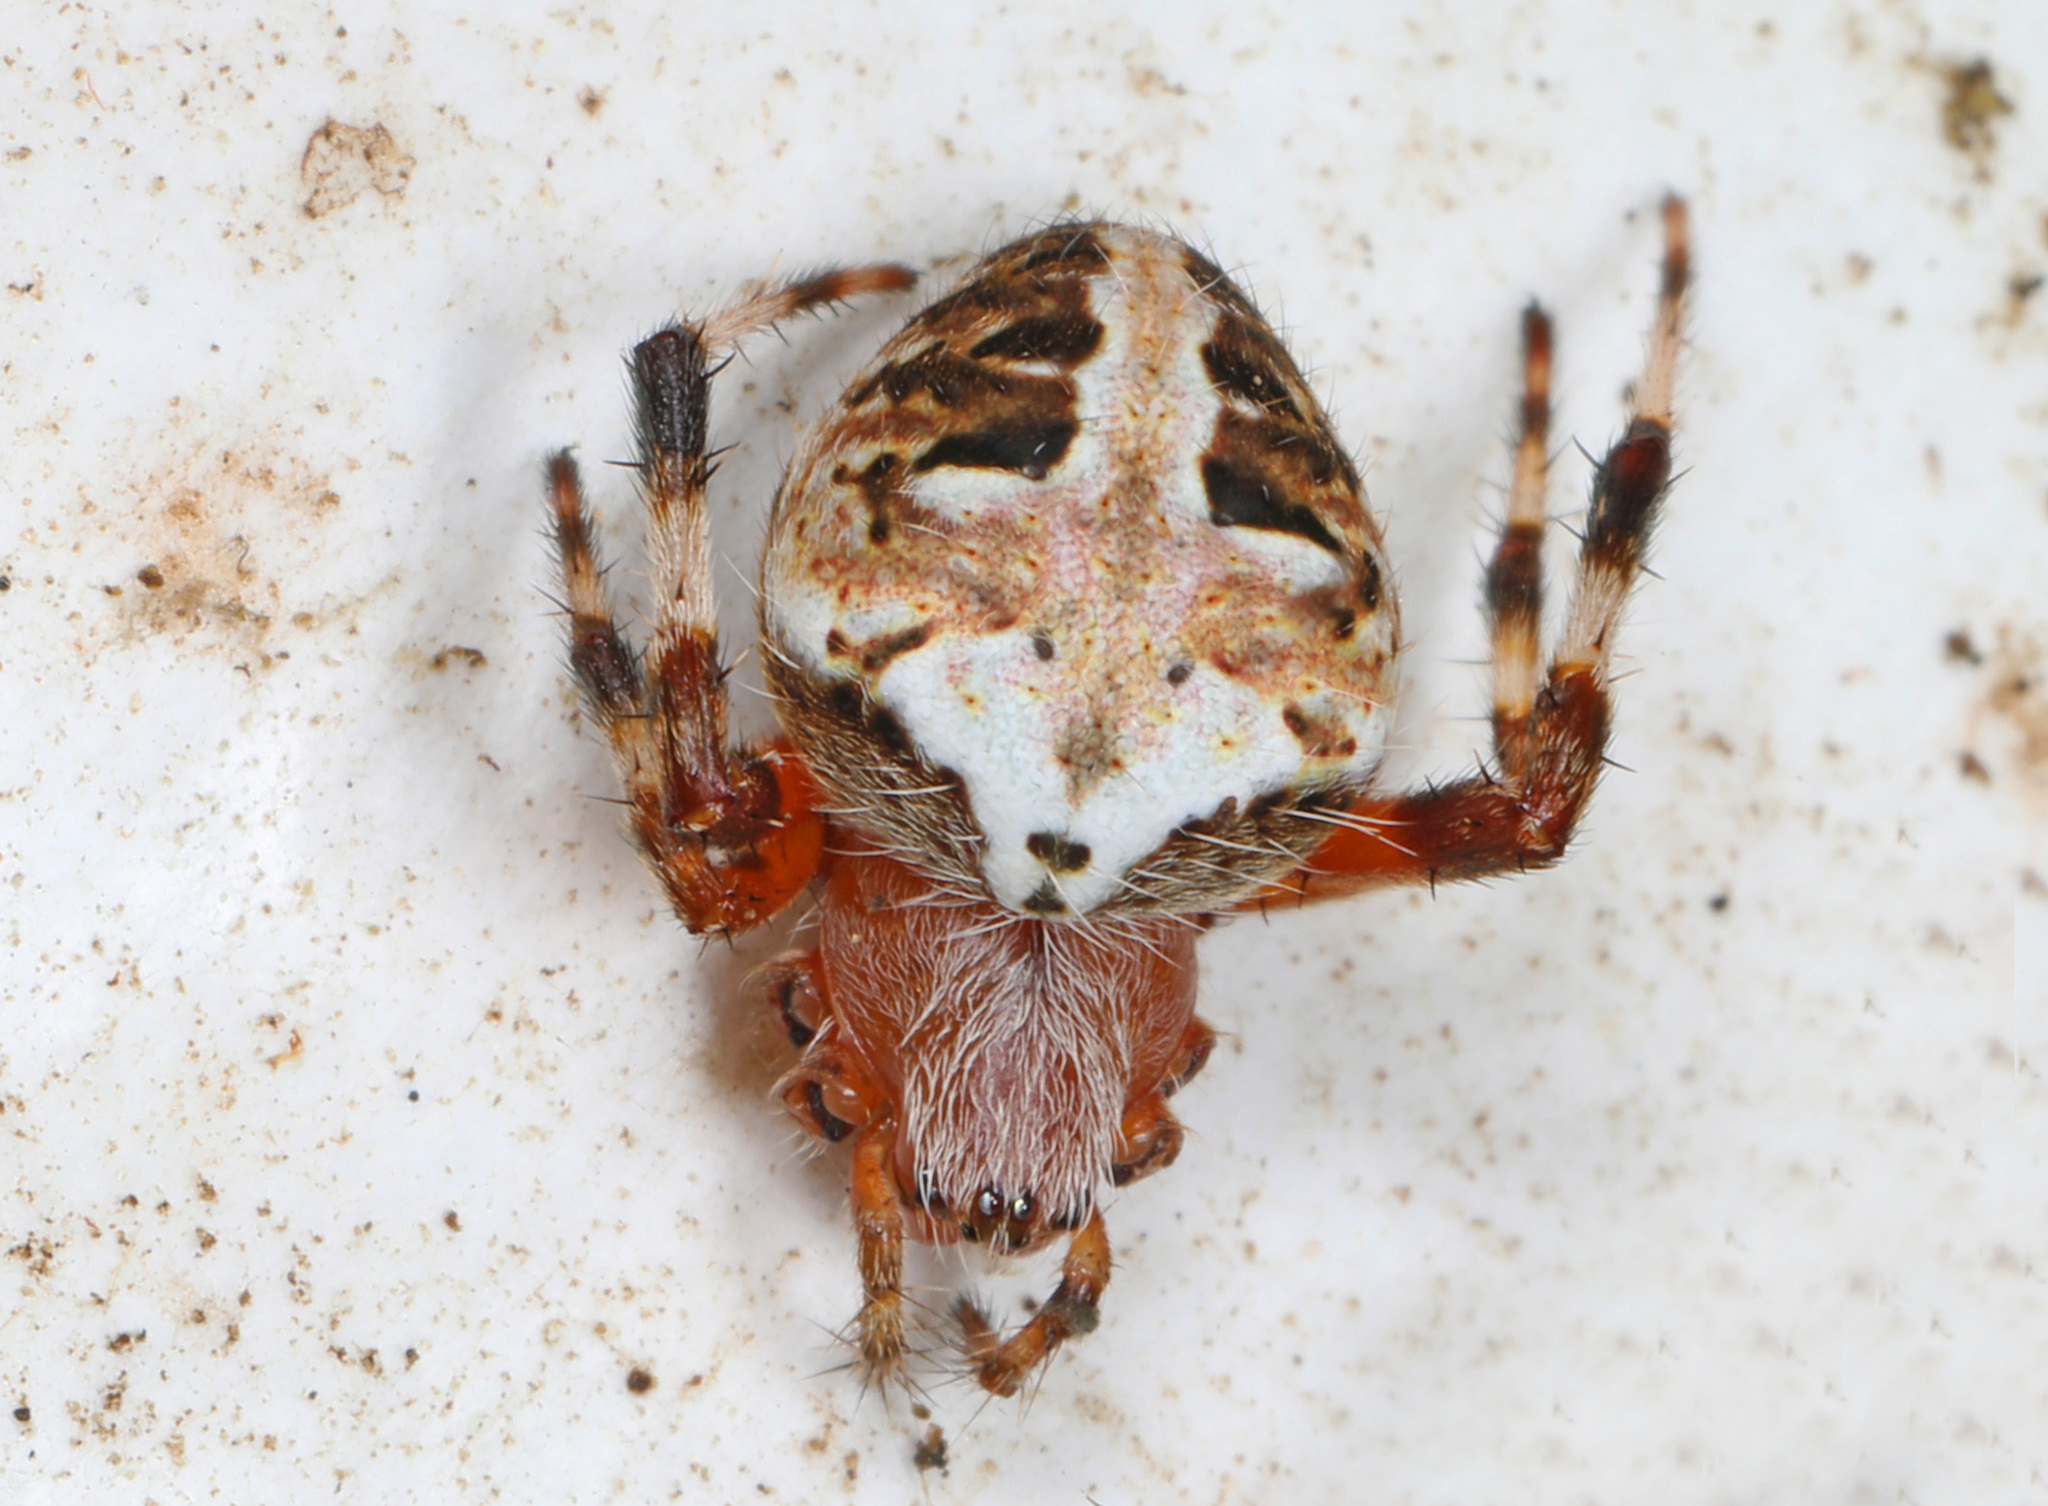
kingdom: Animalia
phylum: Arthropoda
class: Arachnida
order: Araneae
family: Araneidae
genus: Neoscona
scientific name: Neoscona domiciliorum
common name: Red-femured spotted orbweaver
